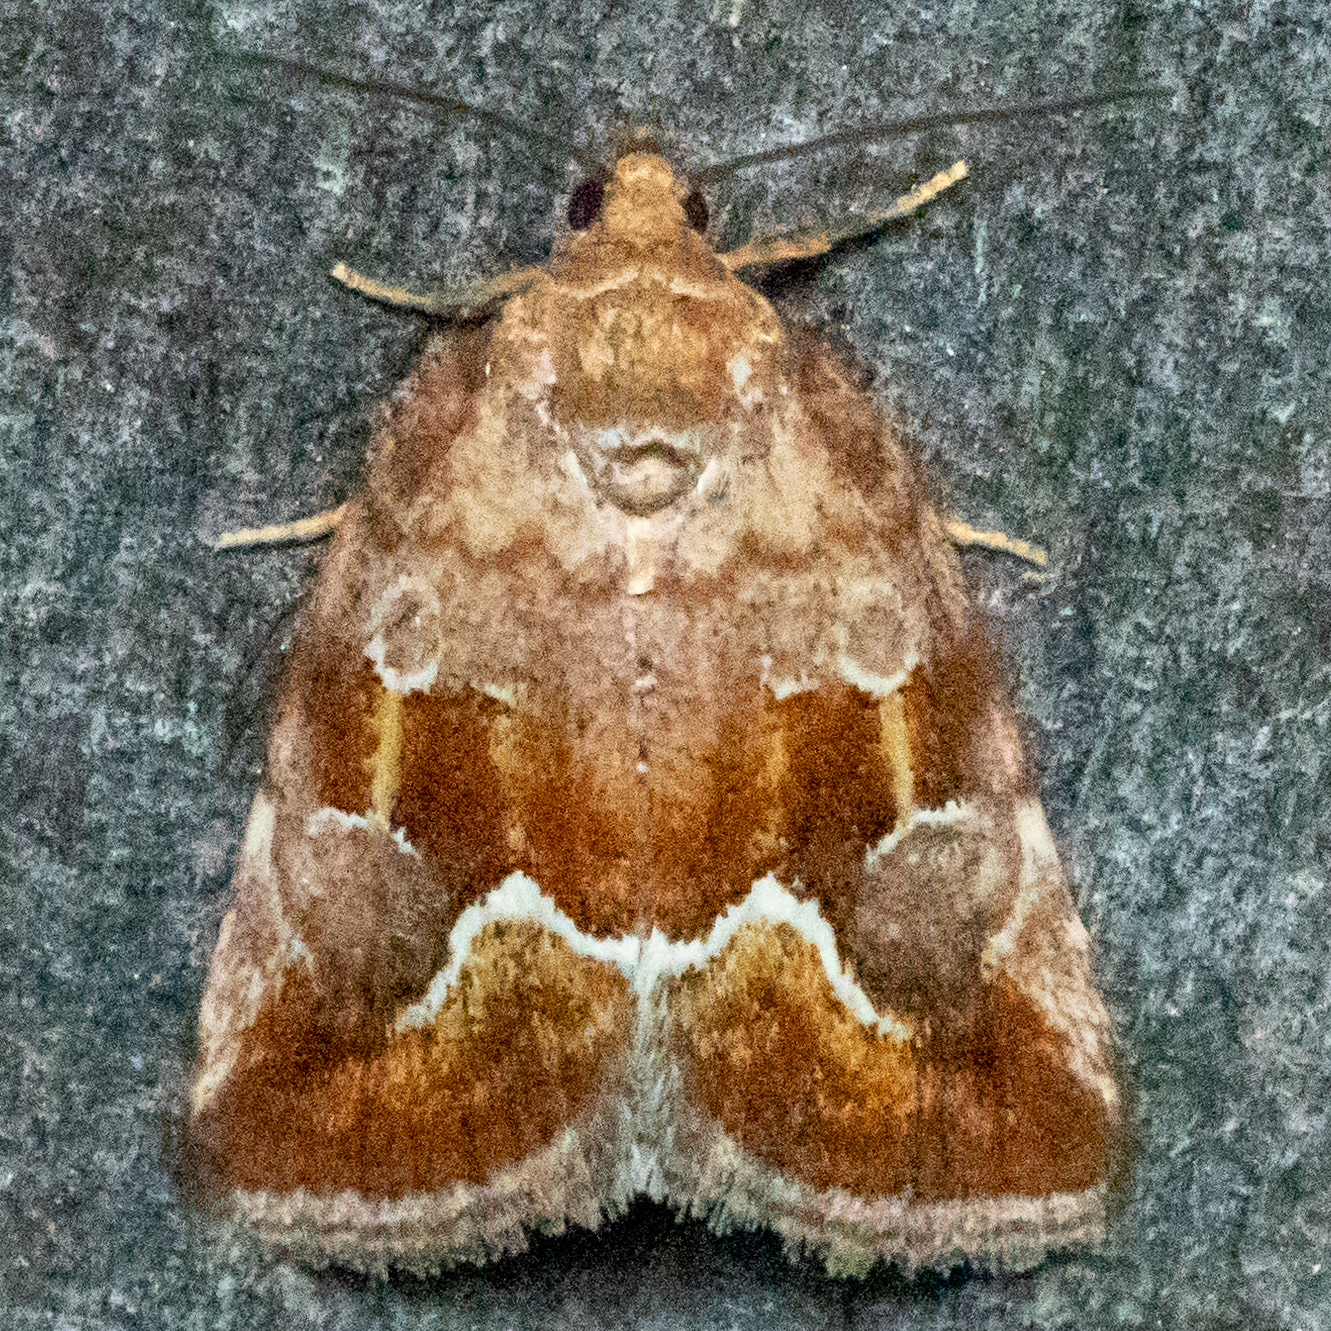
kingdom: Animalia
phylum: Arthropoda
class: Insecta
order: Lepidoptera
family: Noctuidae
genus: Deltote
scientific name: Deltote bellicula
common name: Bog glyph
